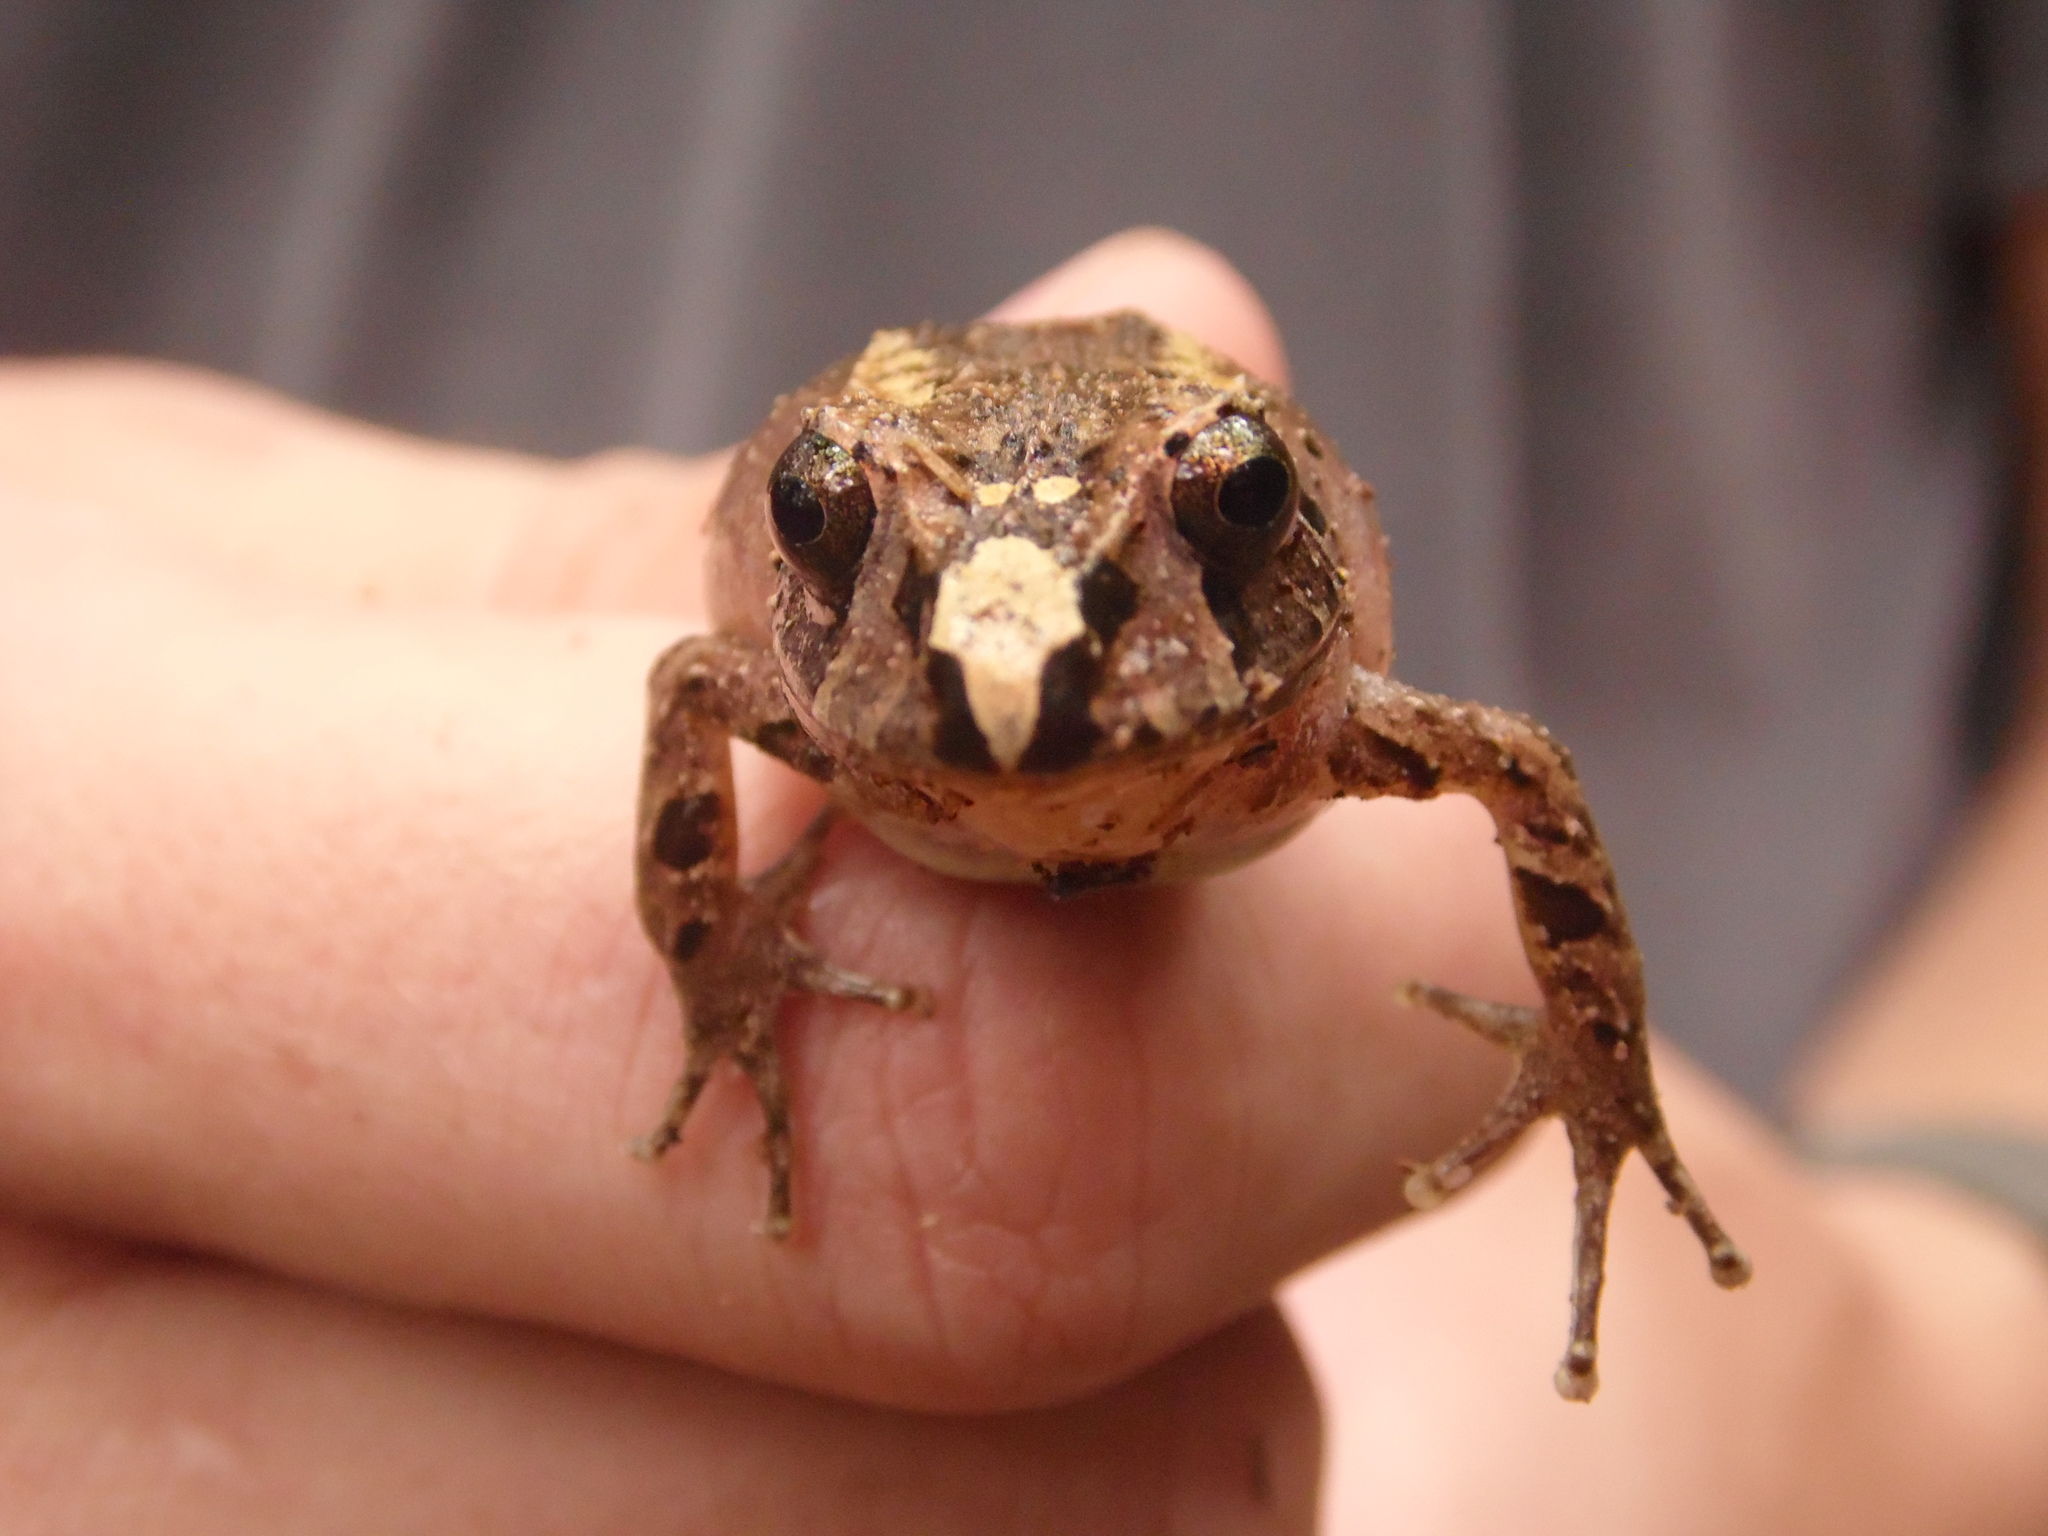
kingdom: Animalia
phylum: Chordata
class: Amphibia
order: Anura
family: Brachycephalidae
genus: Ischnocnema
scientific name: Ischnocnema henselii
